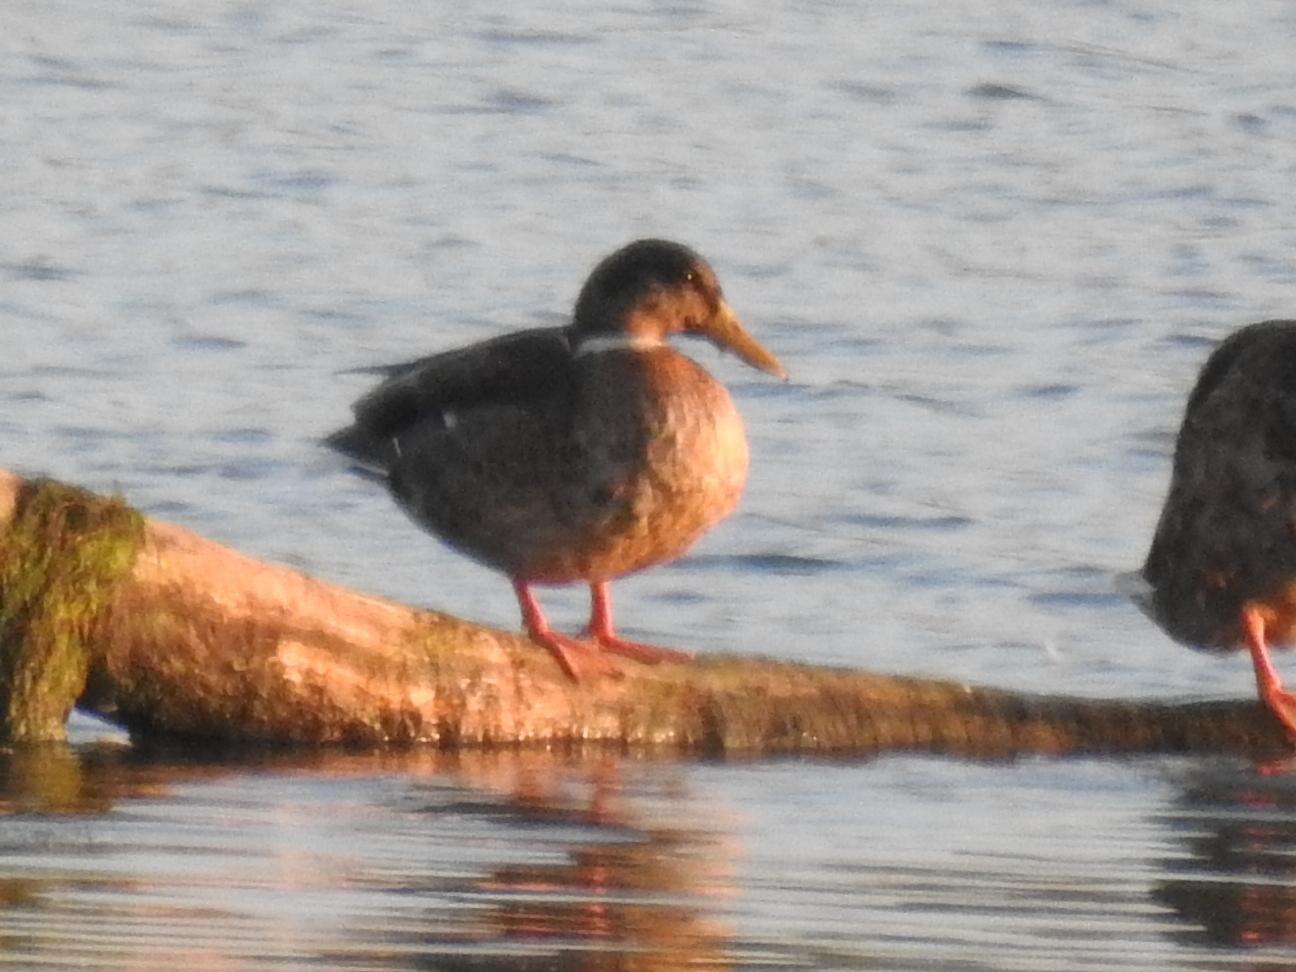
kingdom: Animalia
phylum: Chordata
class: Aves
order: Anseriformes
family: Anatidae
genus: Anas
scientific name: Anas platyrhynchos
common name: Mallard
